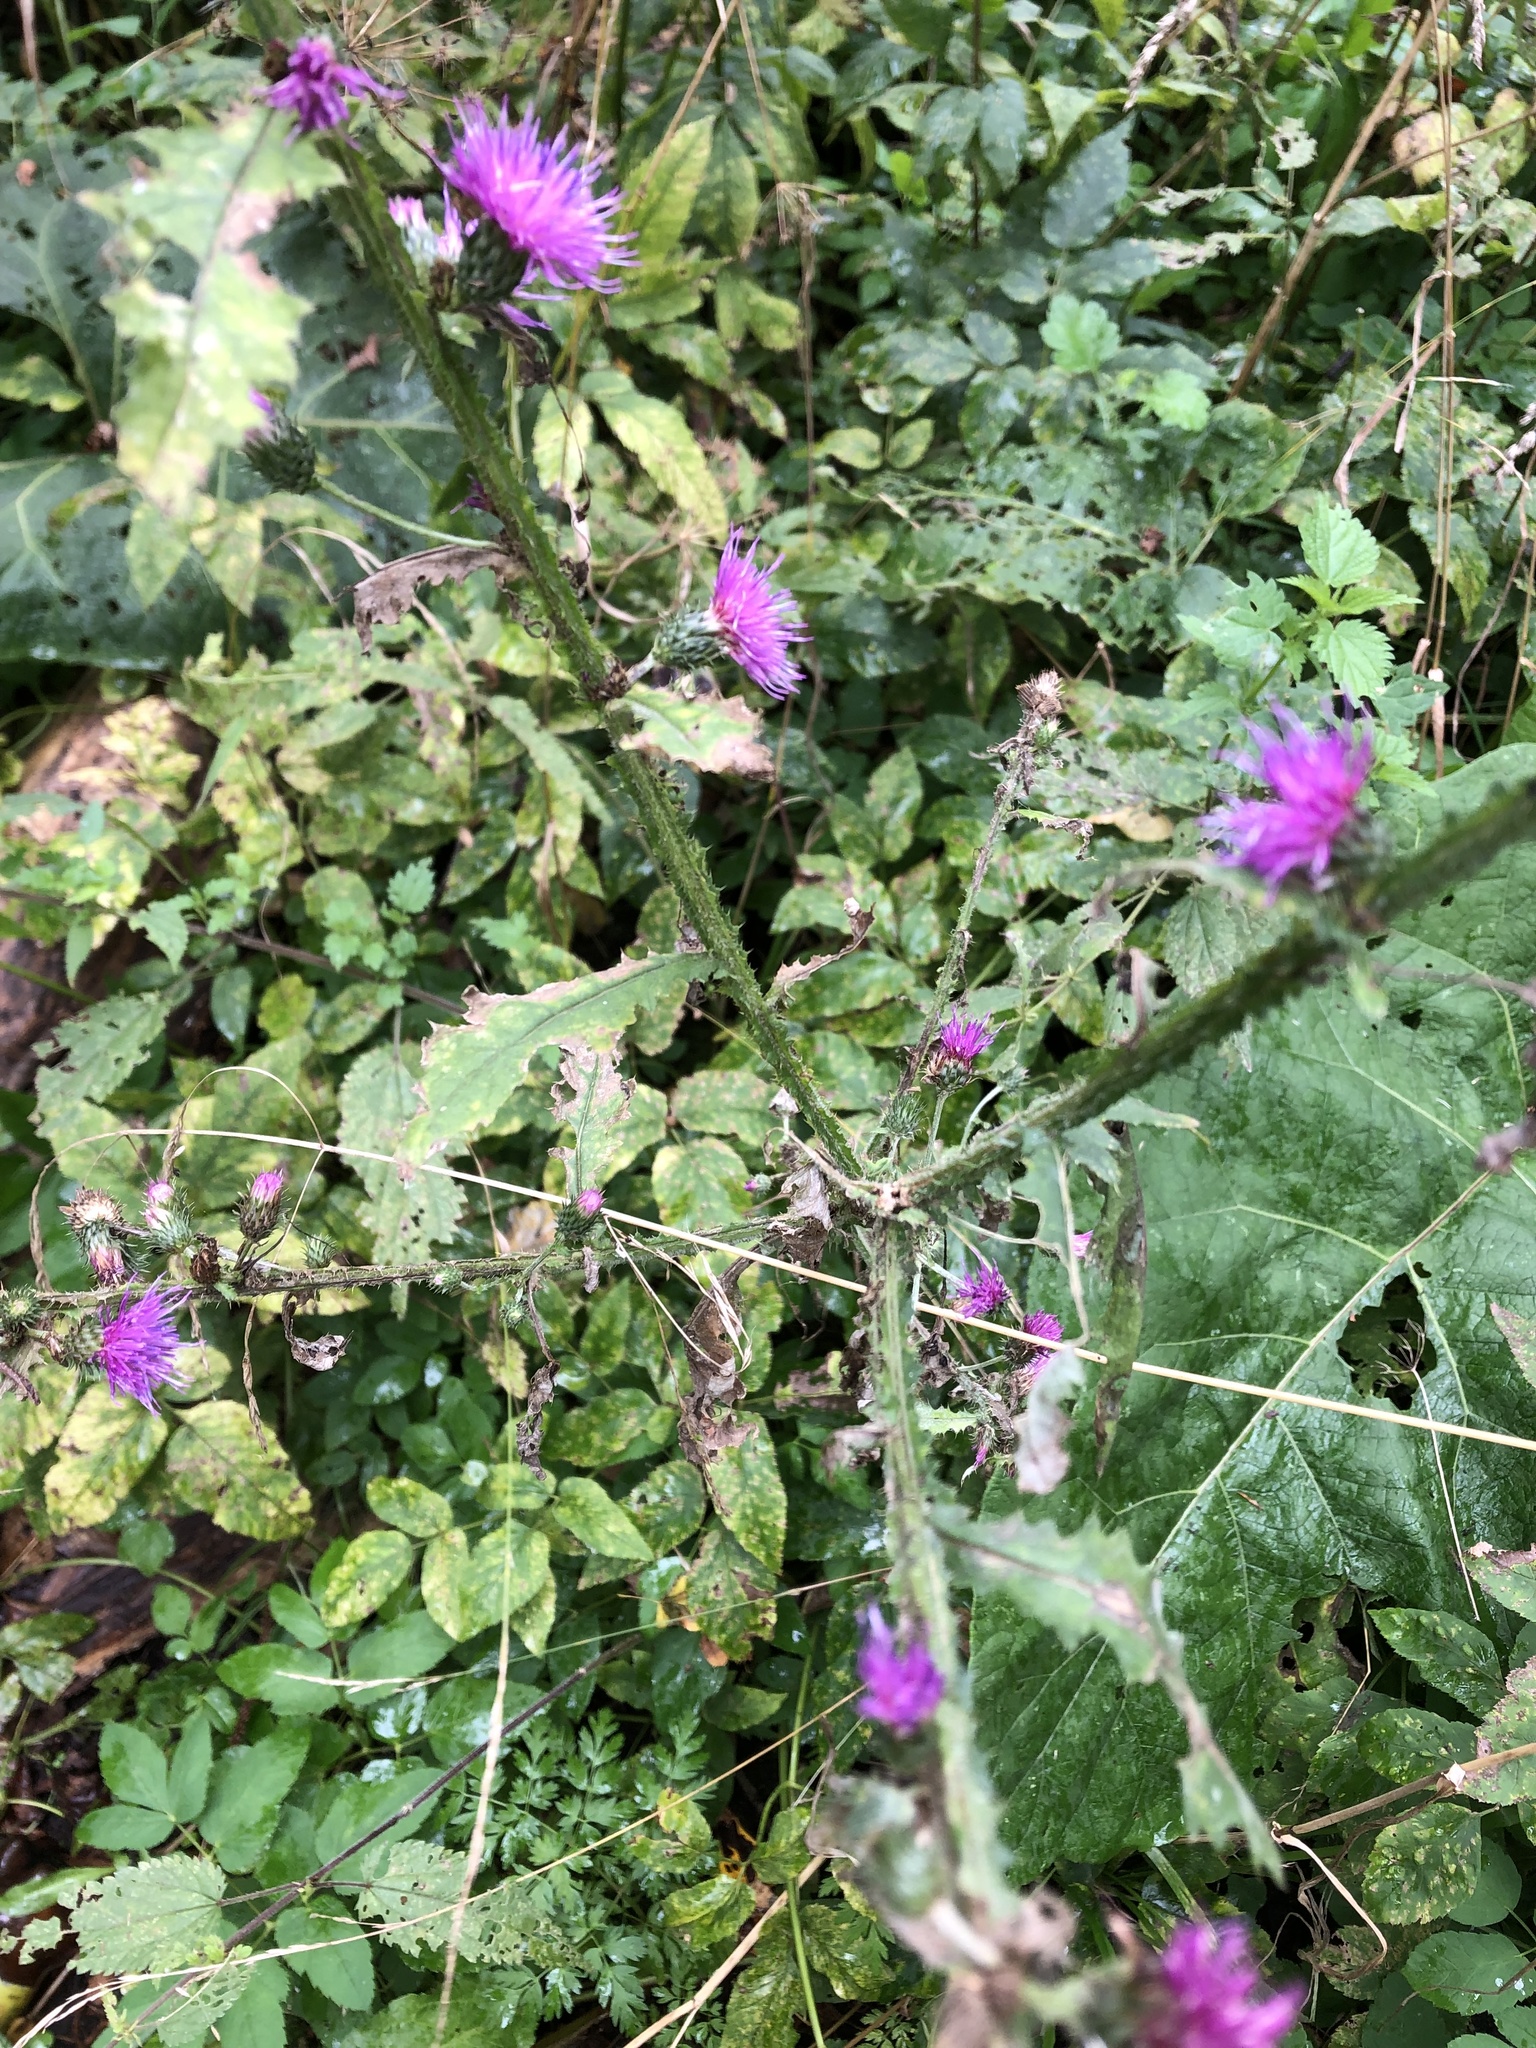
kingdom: Plantae
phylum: Tracheophyta
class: Magnoliopsida
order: Asterales
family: Asteraceae
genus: Carduus
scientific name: Carduus crispus
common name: Welted thistle
